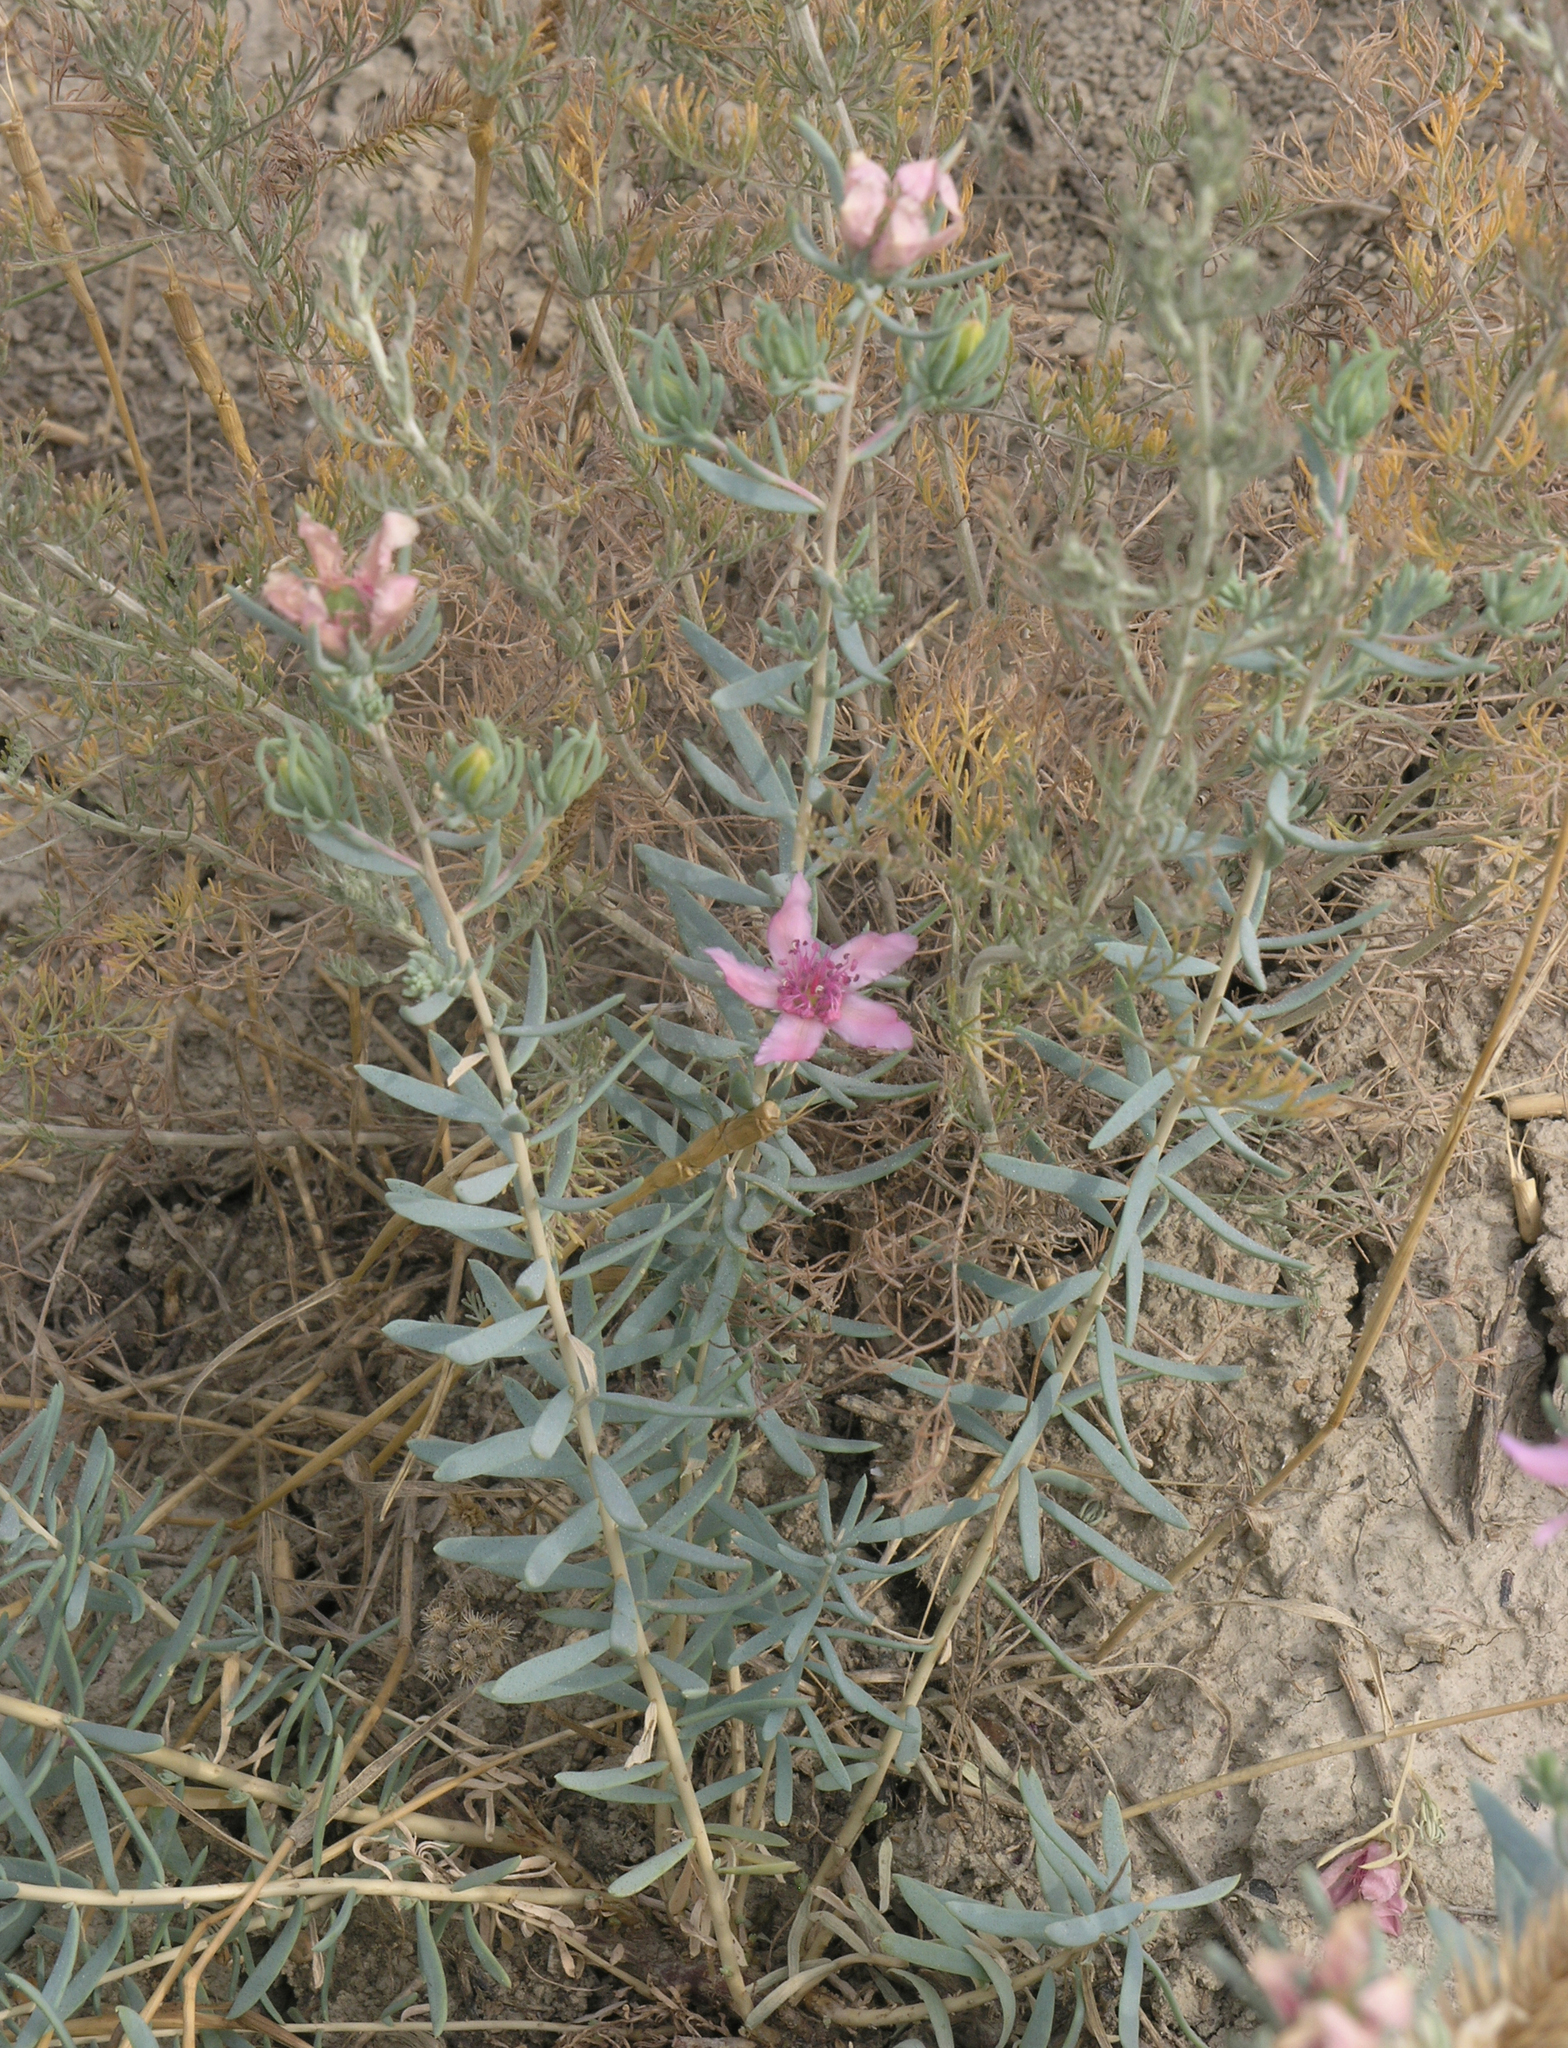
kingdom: Plantae
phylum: Tracheophyta
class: Magnoliopsida
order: Caryophyllales
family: Tamaricaceae
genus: Reaumuria
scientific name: Reaumuria alternifolia
